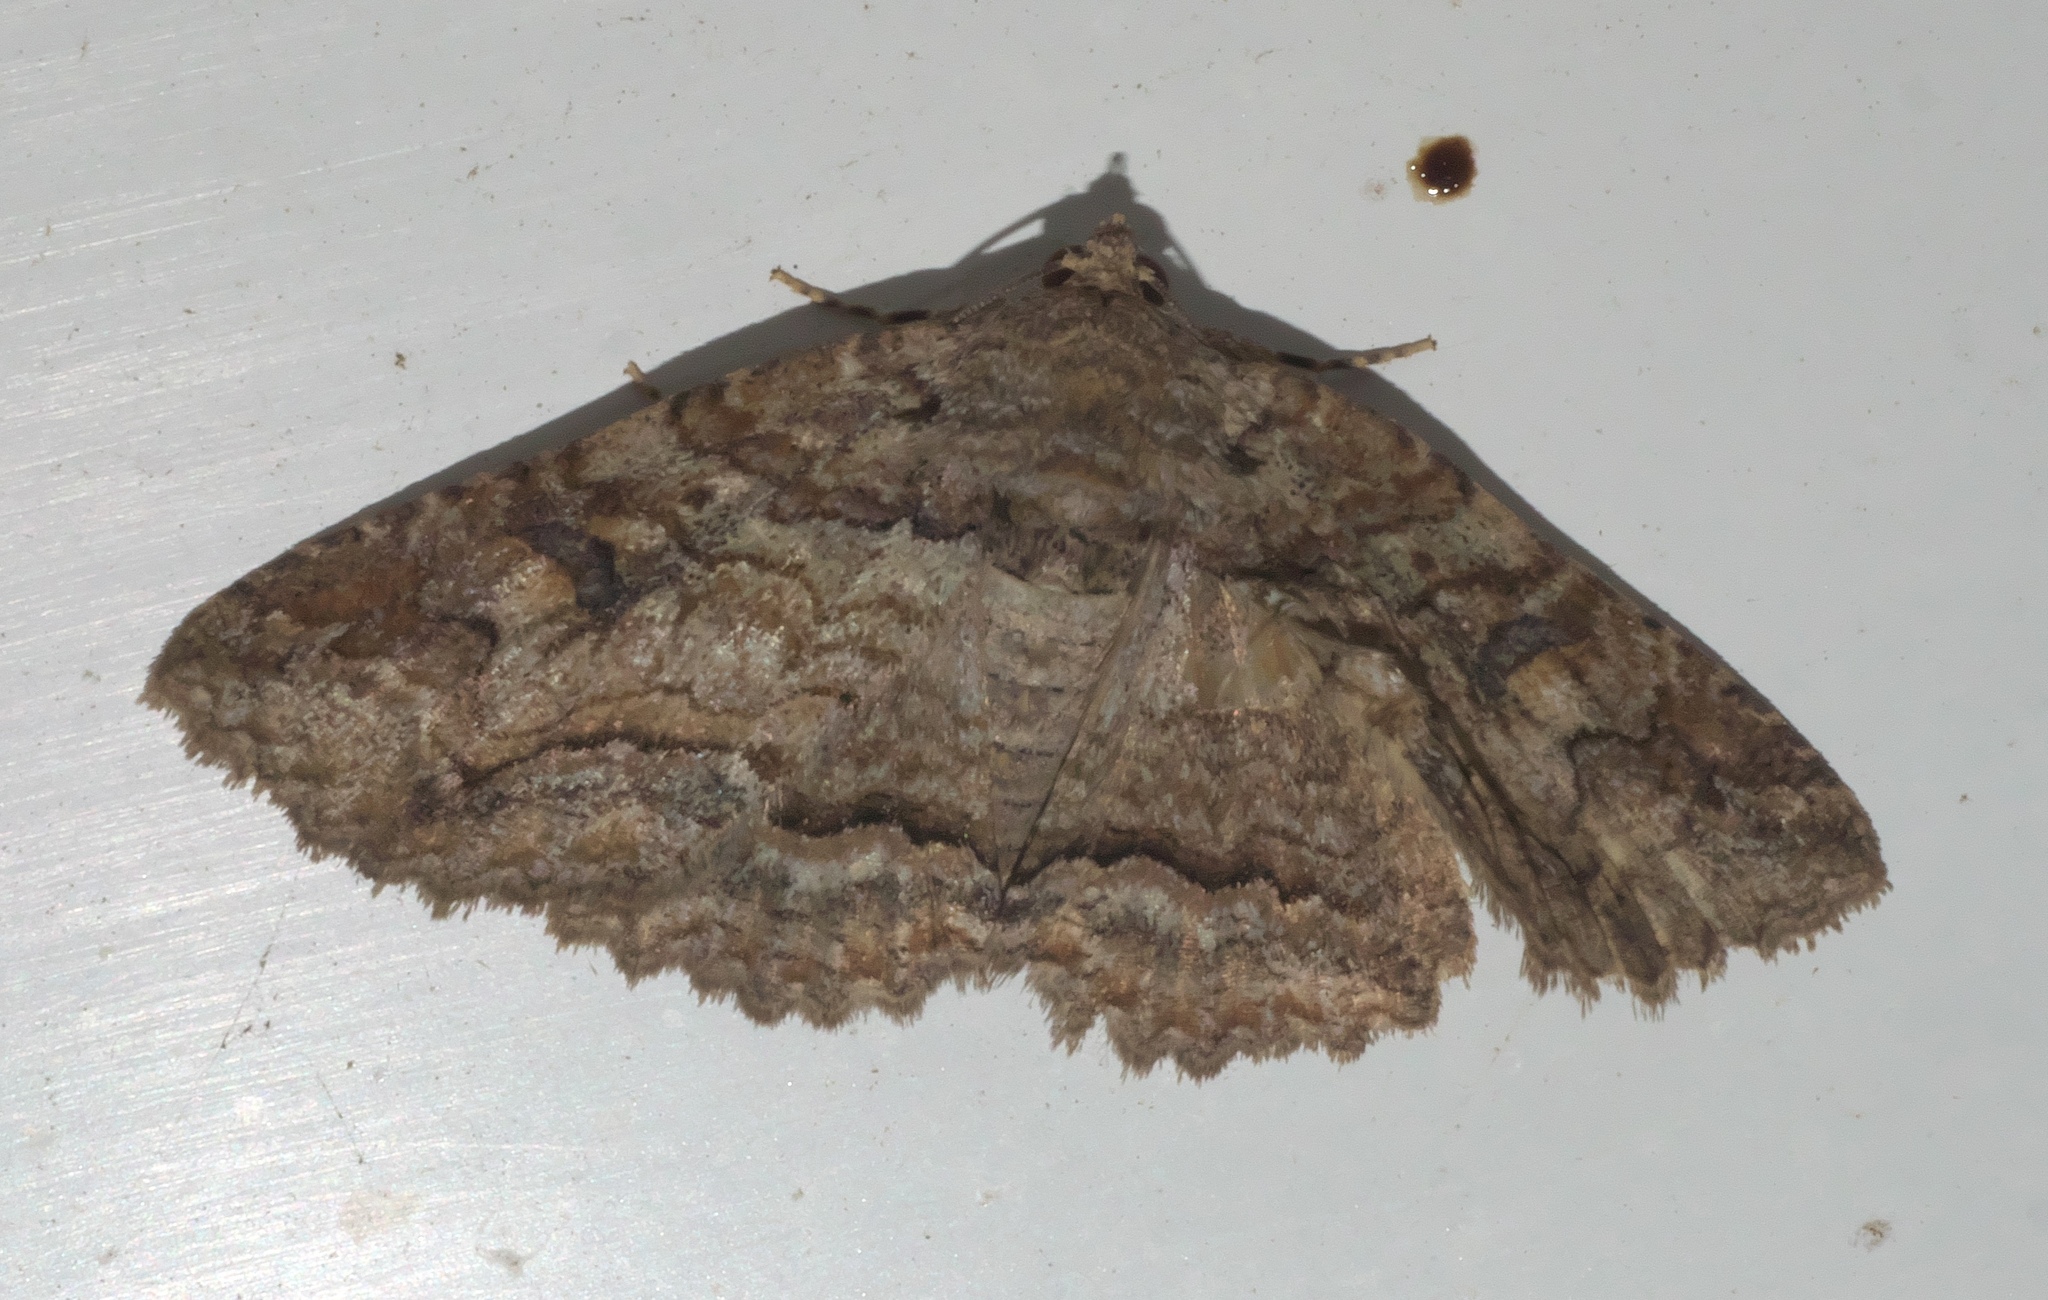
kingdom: Animalia
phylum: Arthropoda
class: Insecta
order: Lepidoptera
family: Erebidae
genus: Zale
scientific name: Zale galbanata
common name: Maple zale
